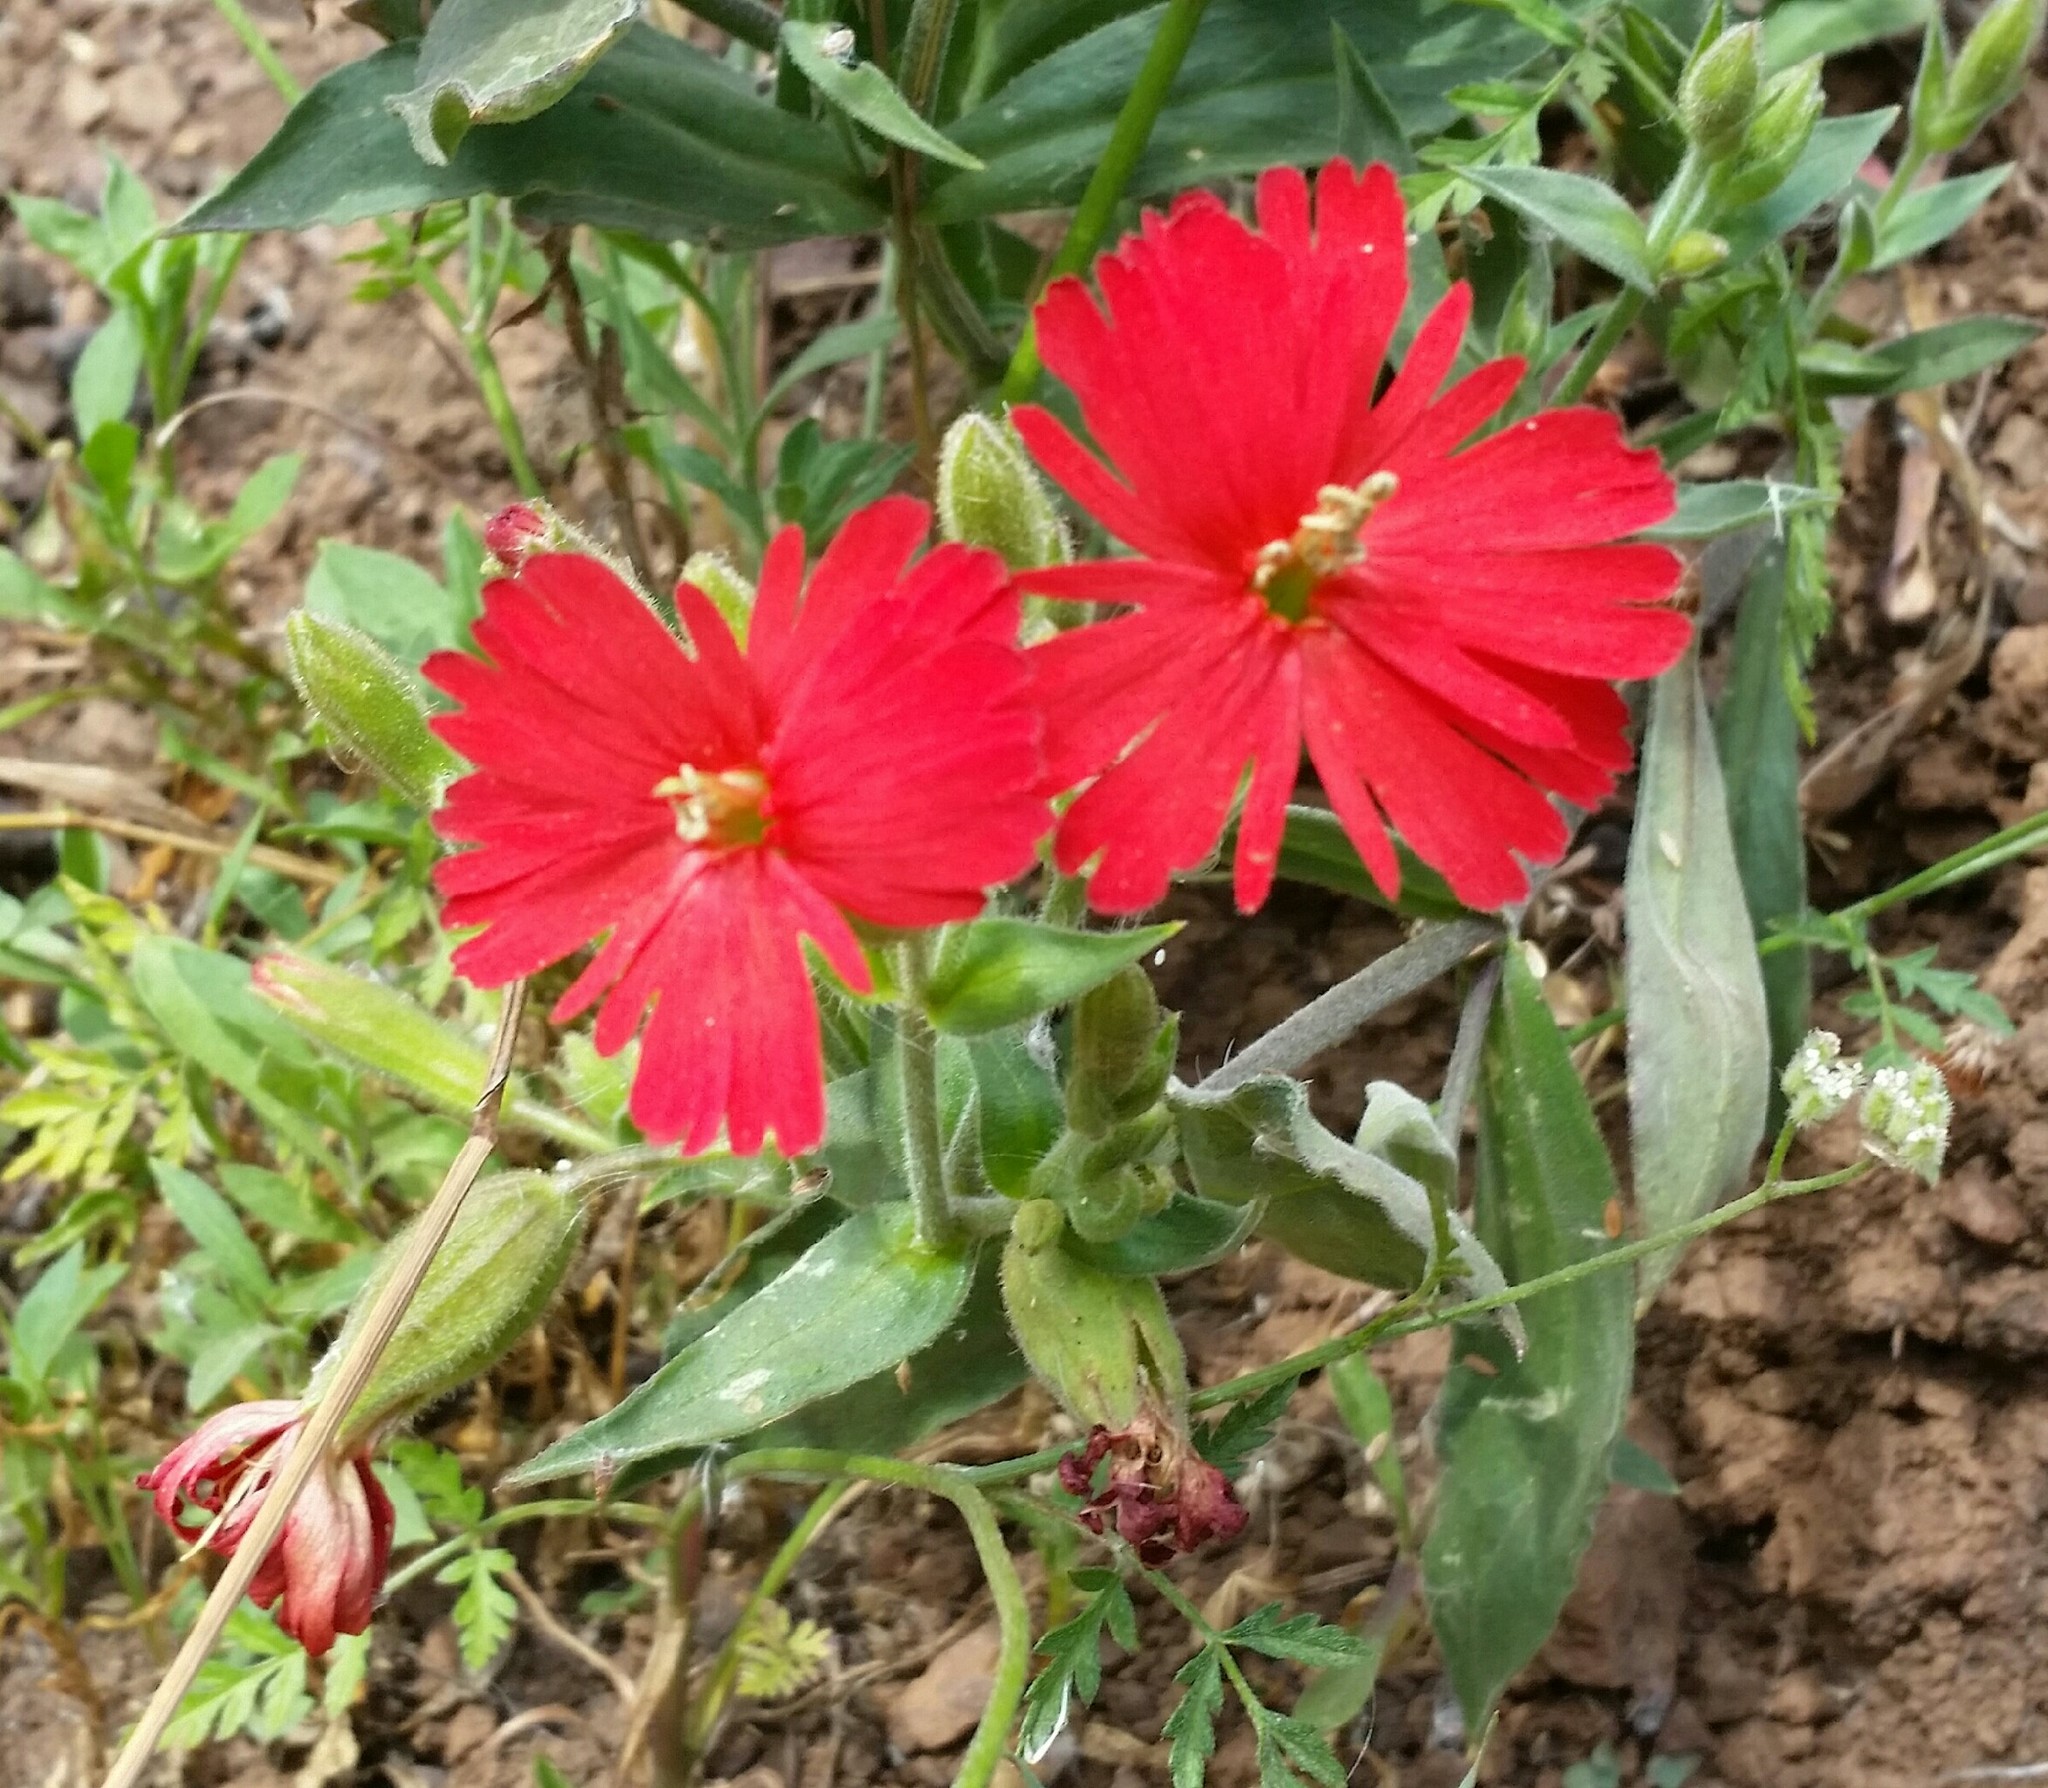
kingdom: Plantae
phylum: Tracheophyta
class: Magnoliopsida
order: Caryophyllales
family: Caryophyllaceae
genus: Silene
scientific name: Silene laciniata
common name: Indian-pink
